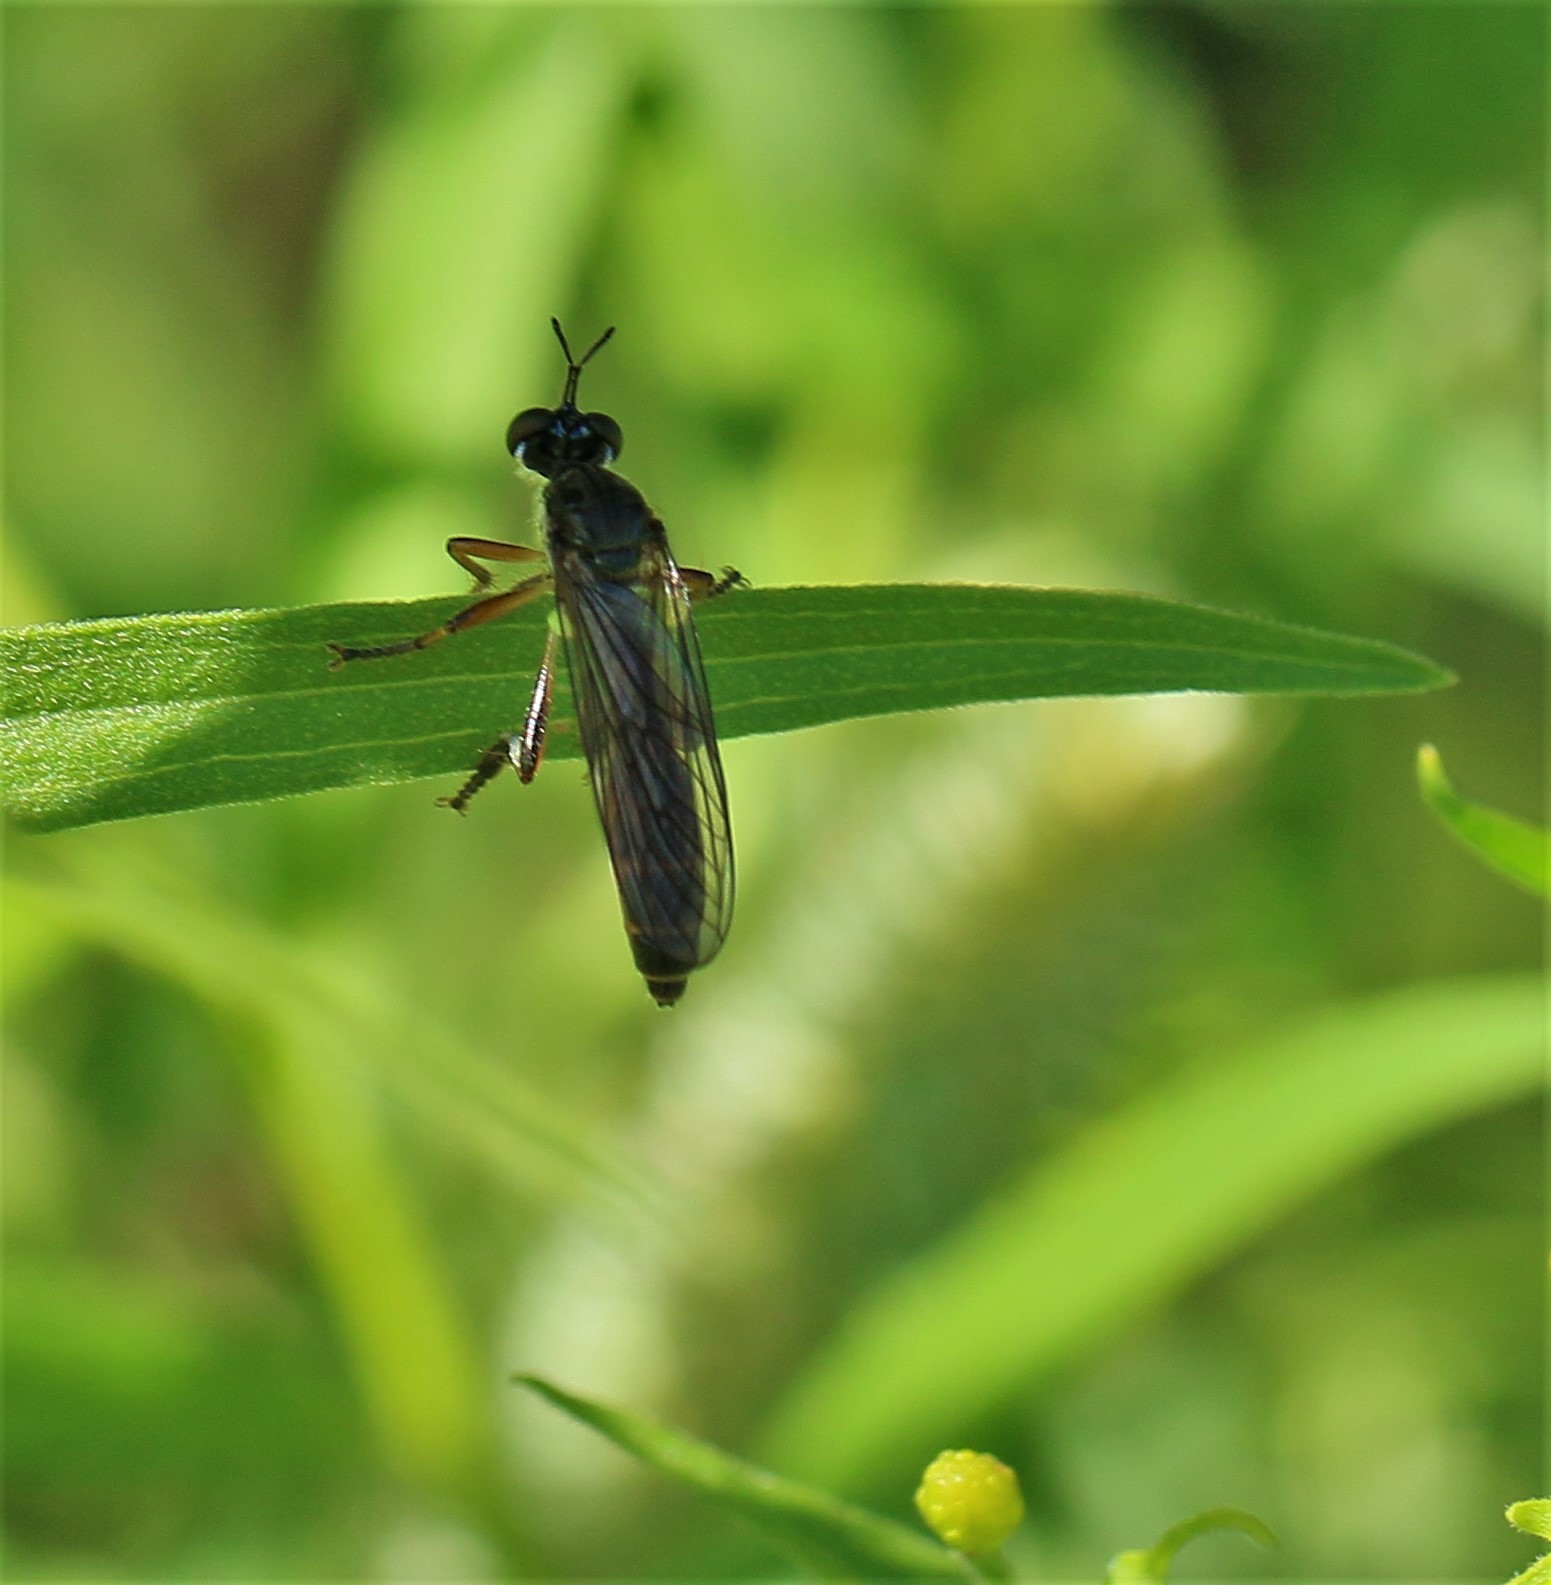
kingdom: Animalia
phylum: Arthropoda
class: Insecta
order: Diptera
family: Asilidae
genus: Dioctria
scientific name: Dioctria hyalipennis
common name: Stripe-legged robberfly
